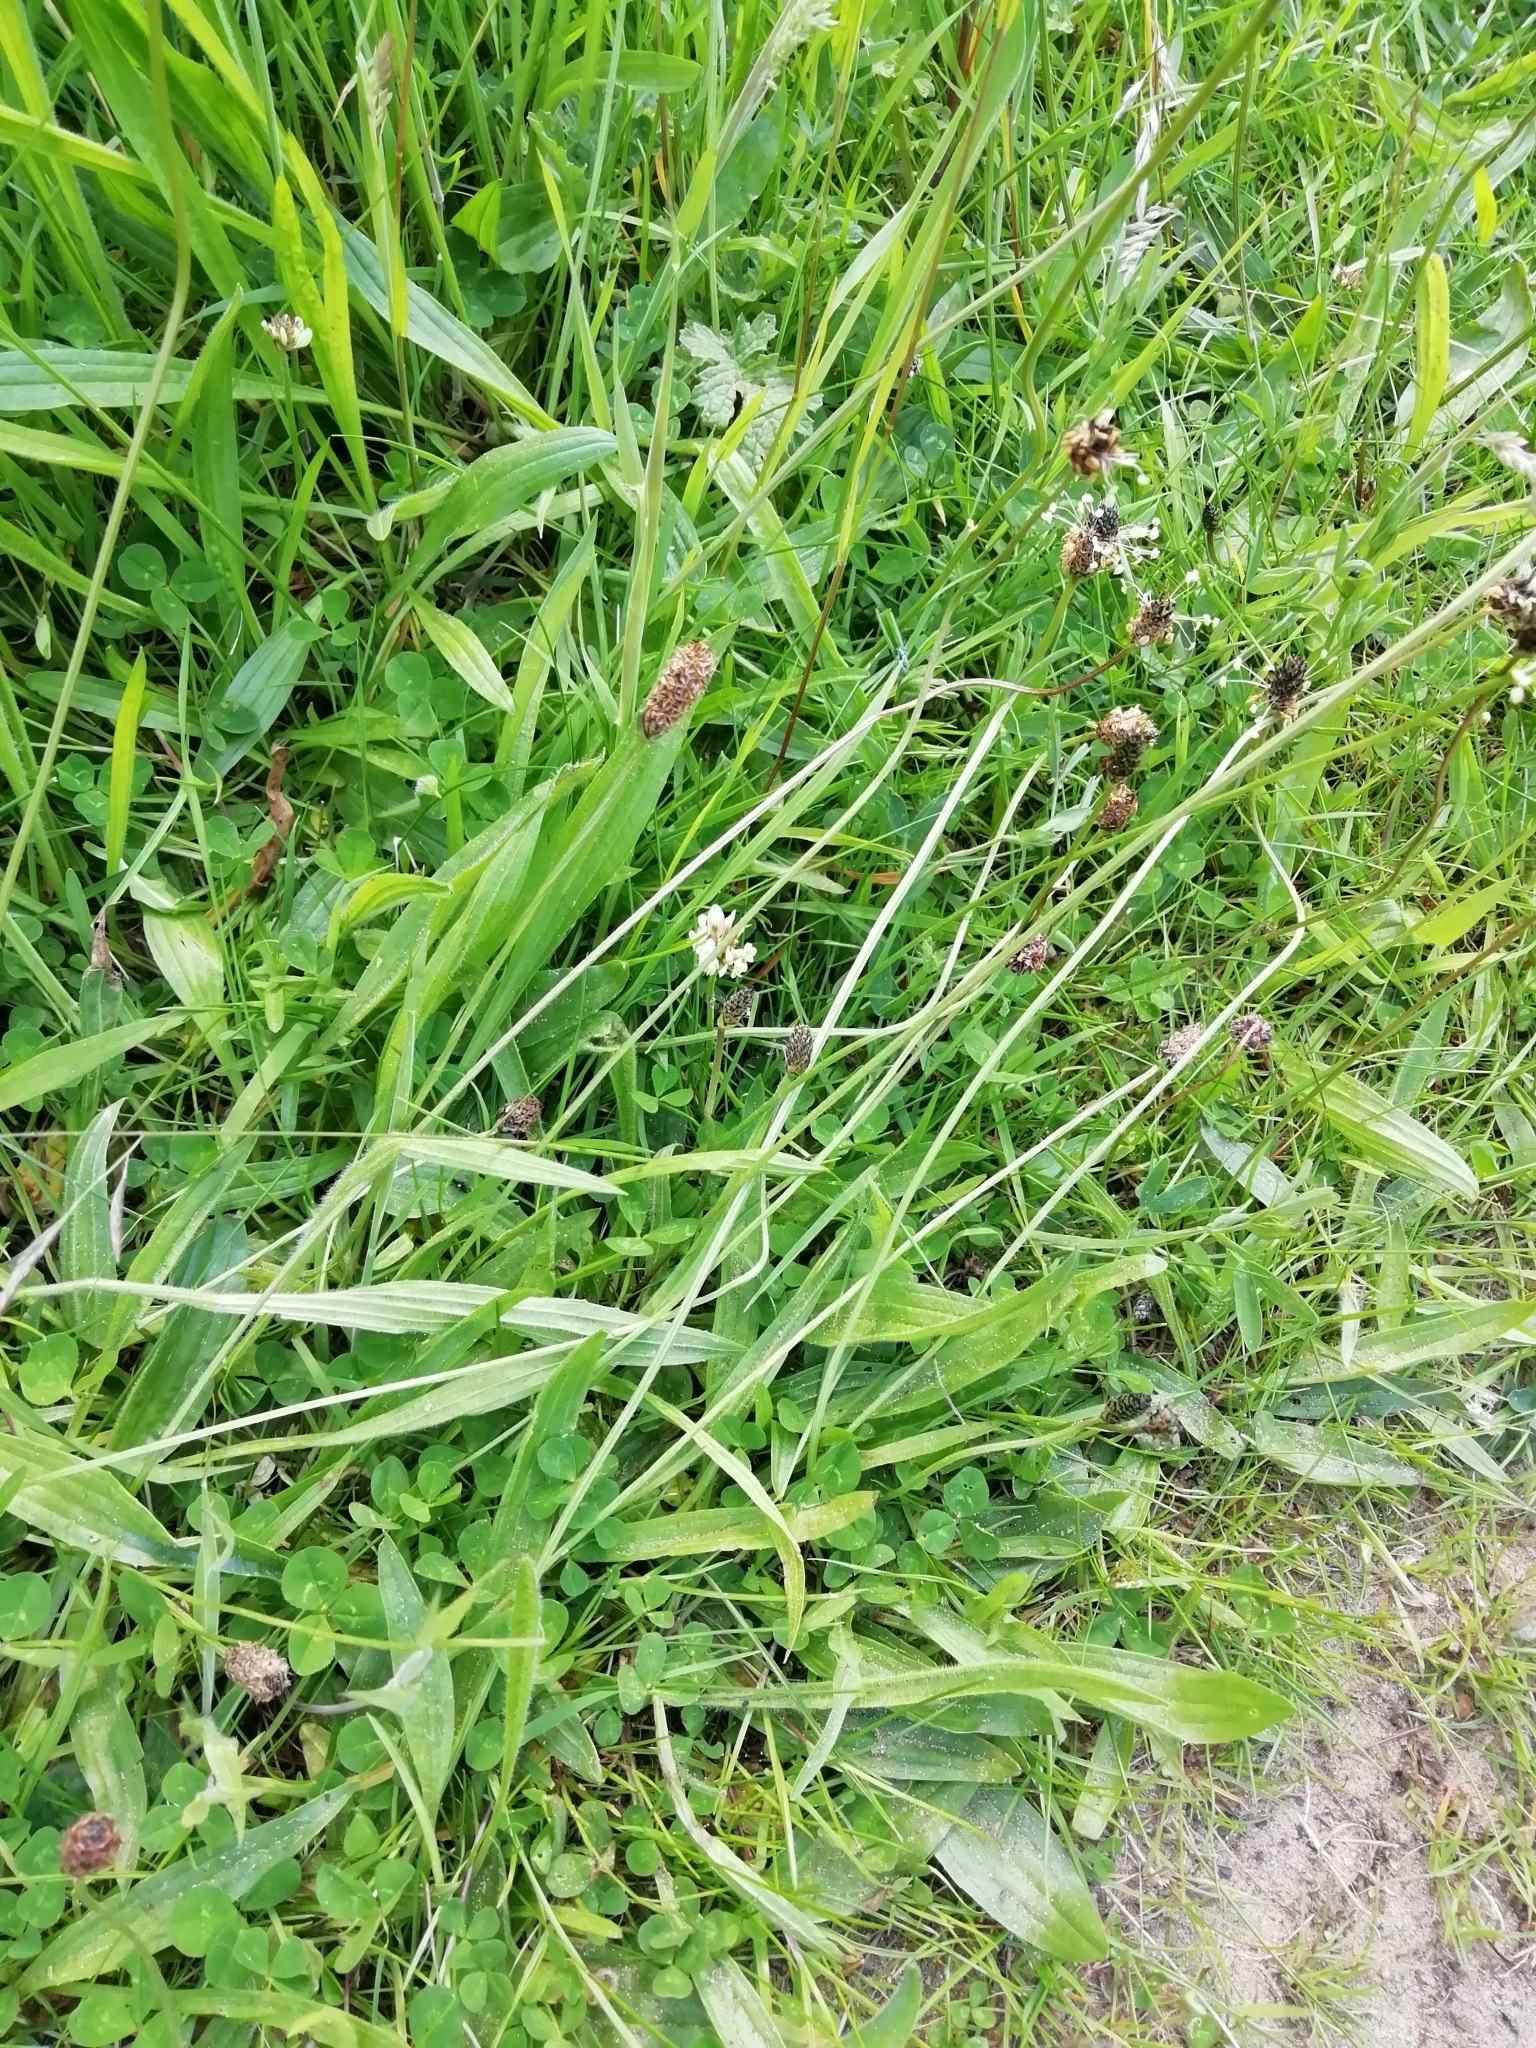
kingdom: Plantae
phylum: Tracheophyta
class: Magnoliopsida
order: Lamiales
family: Plantaginaceae
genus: Plantago
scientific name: Plantago lanceolata
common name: Ribwort plantain
